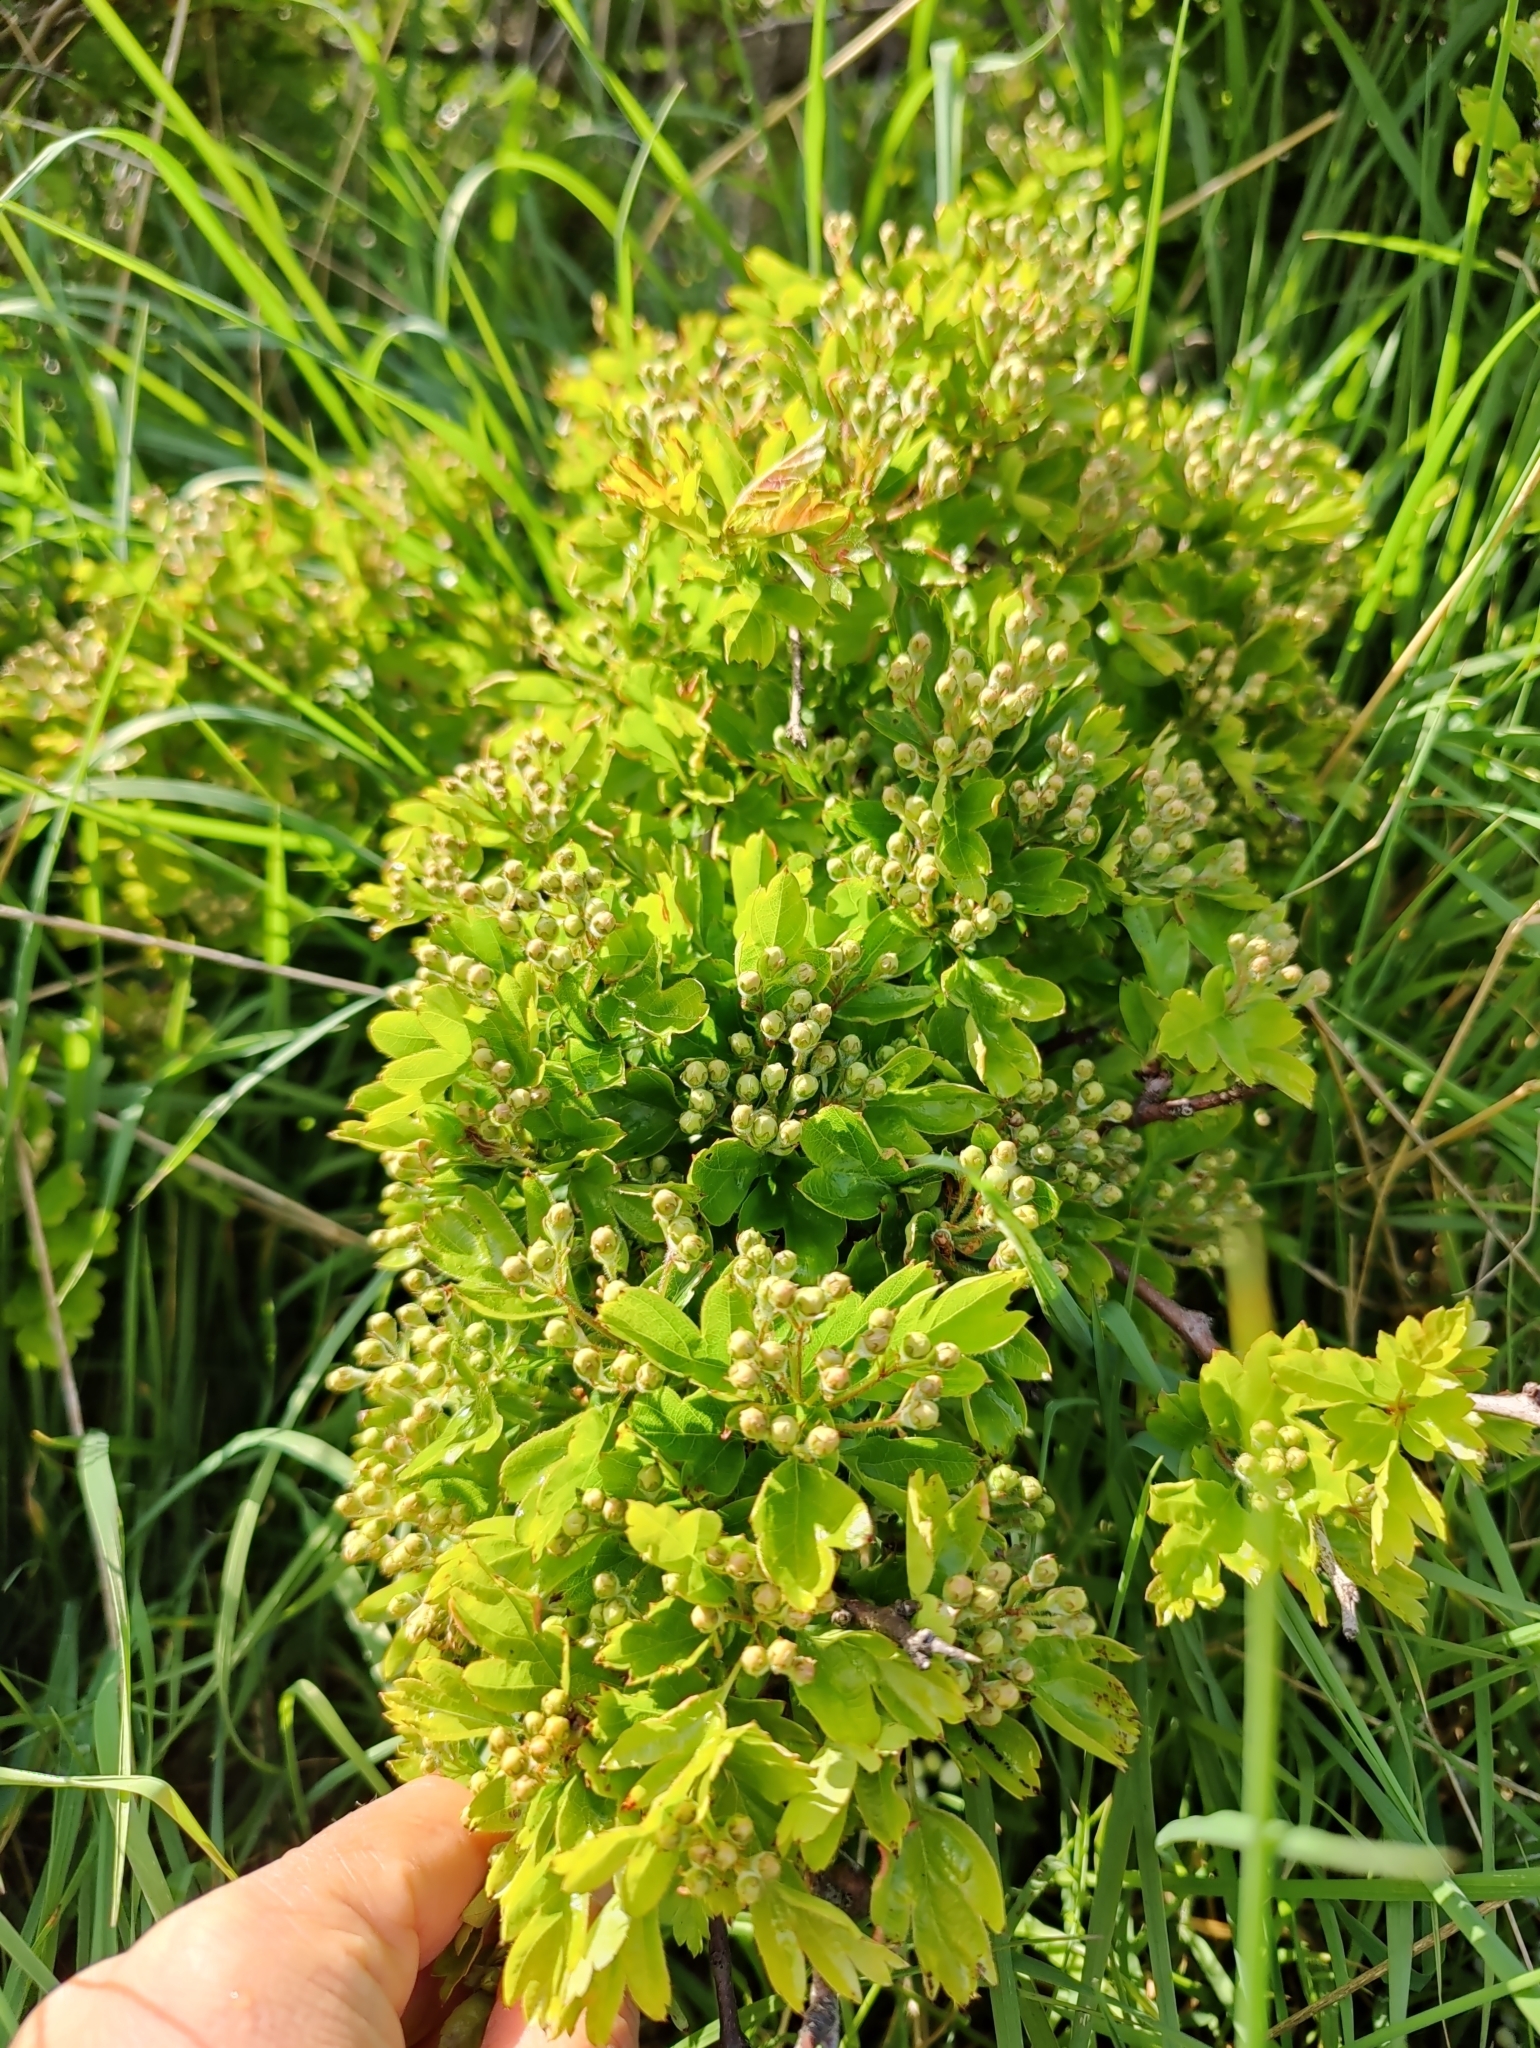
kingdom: Plantae
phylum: Tracheophyta
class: Magnoliopsida
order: Rosales
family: Rosaceae
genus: Crataegus
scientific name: Crataegus monogyna
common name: Hawthorn
